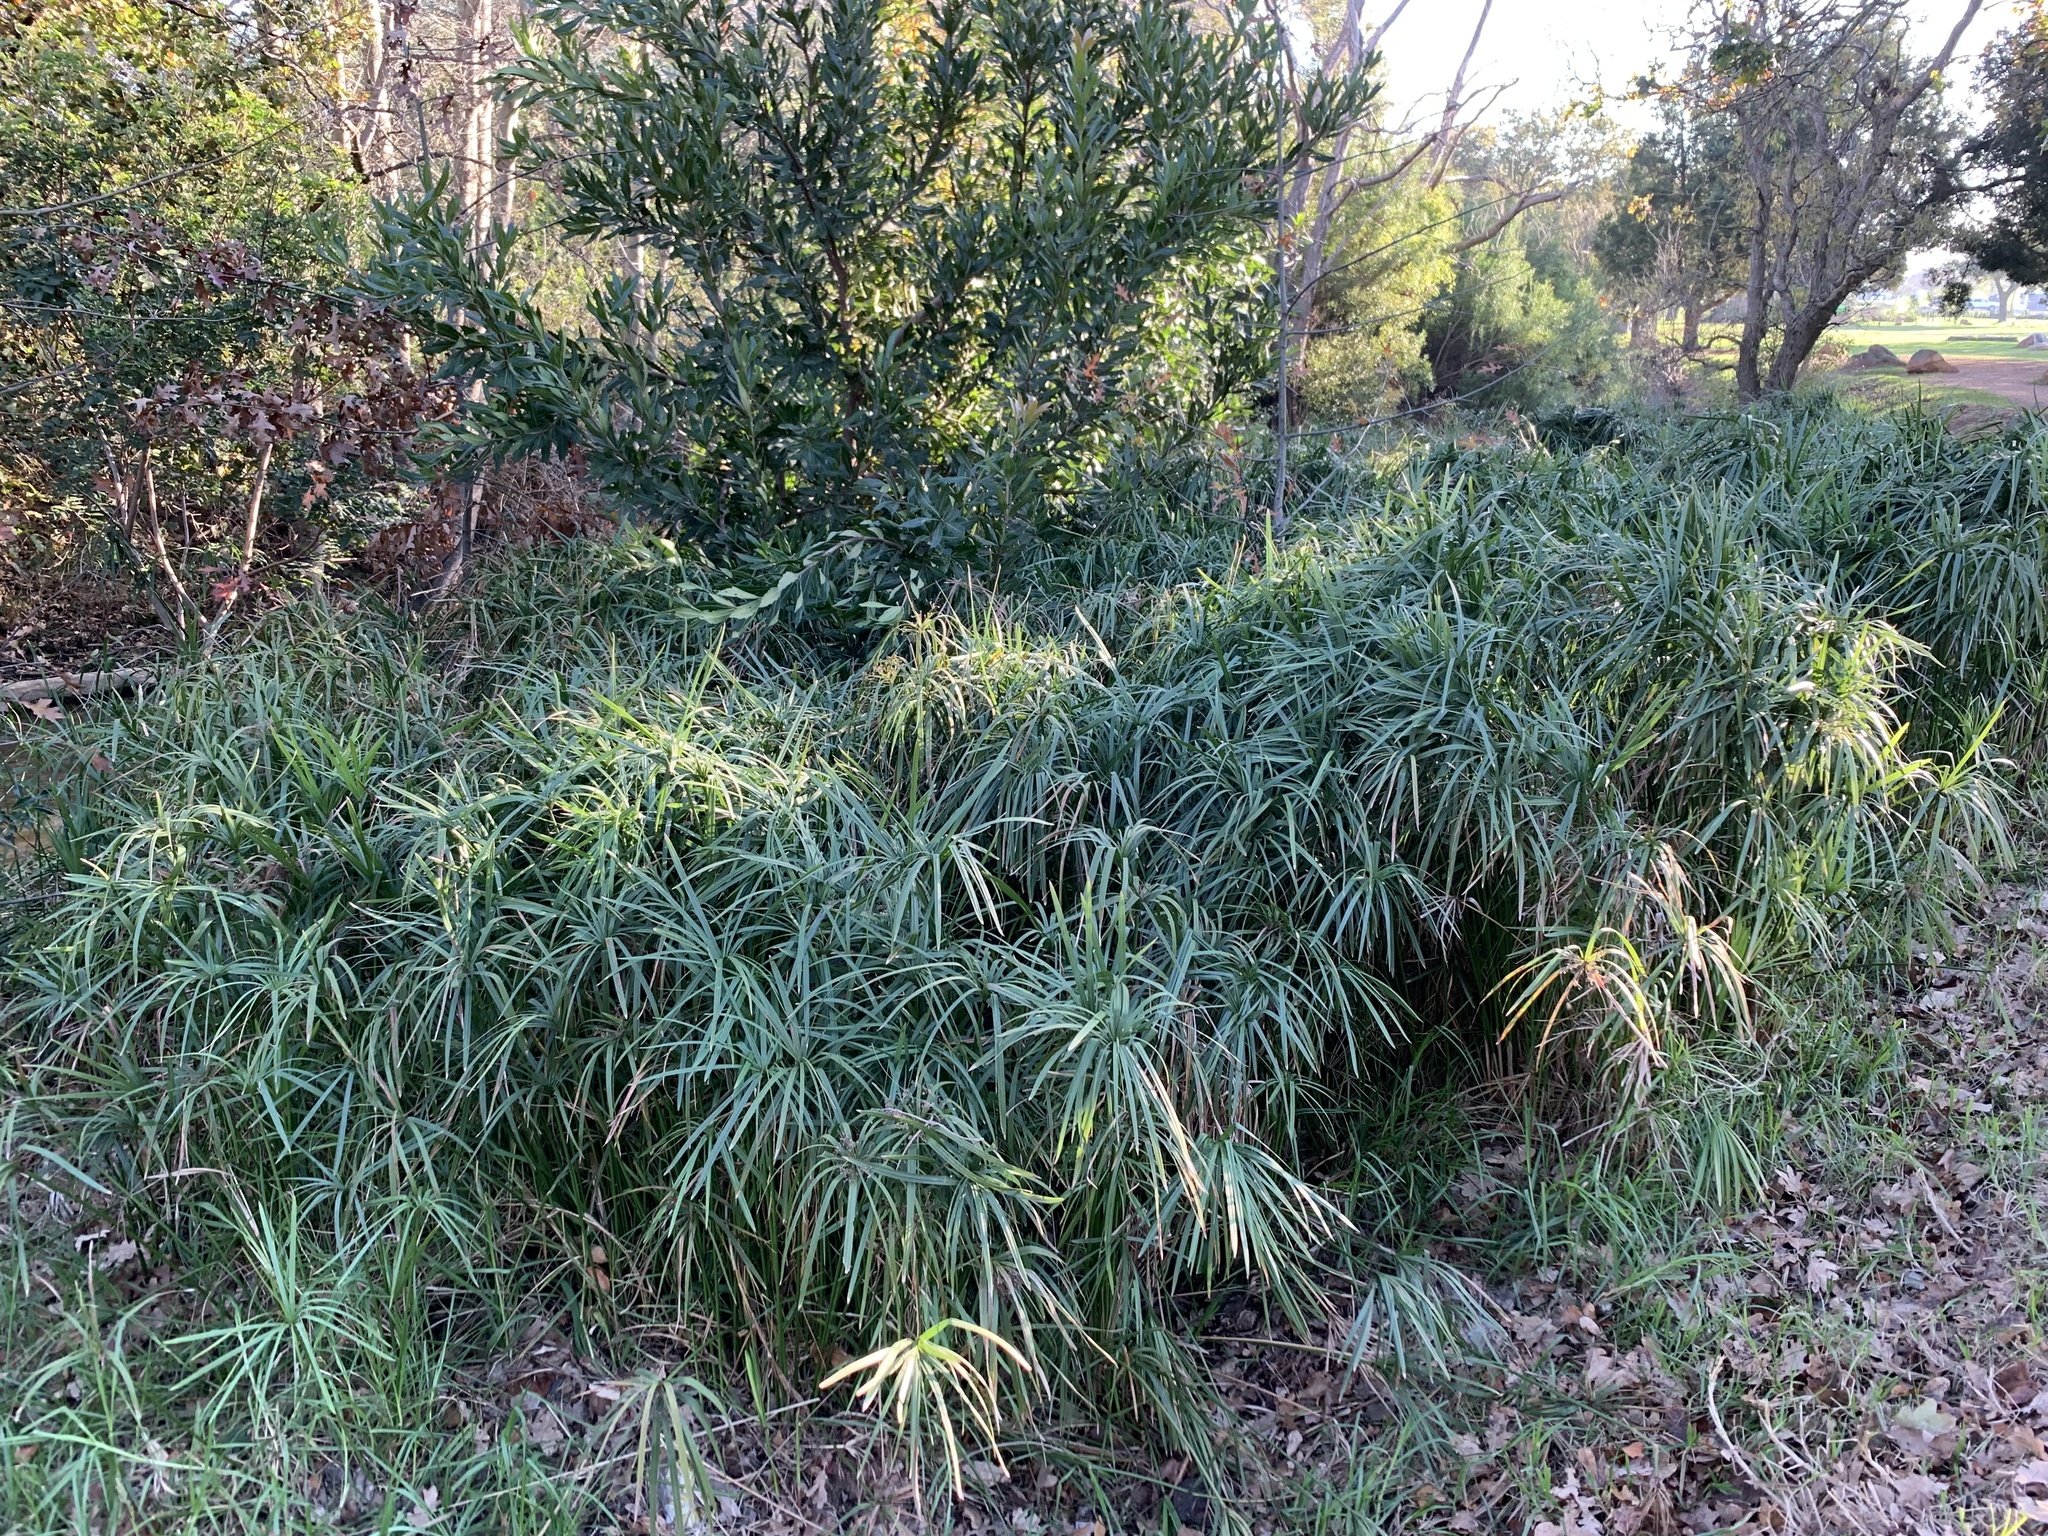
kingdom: Plantae
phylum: Tracheophyta
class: Liliopsida
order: Poales
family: Cyperaceae
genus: Cyperus
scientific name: Cyperus textilis
